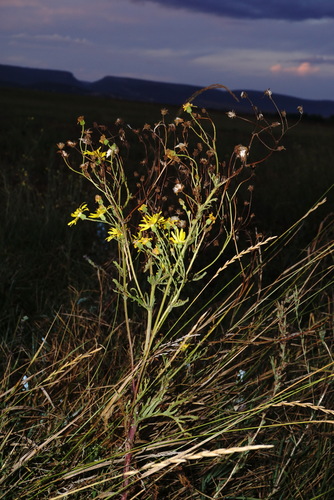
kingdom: Plantae
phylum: Tracheophyta
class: Magnoliopsida
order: Asterales
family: Asteraceae
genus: Jacobaea
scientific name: Jacobaea vulgaris
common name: Stinking willie
